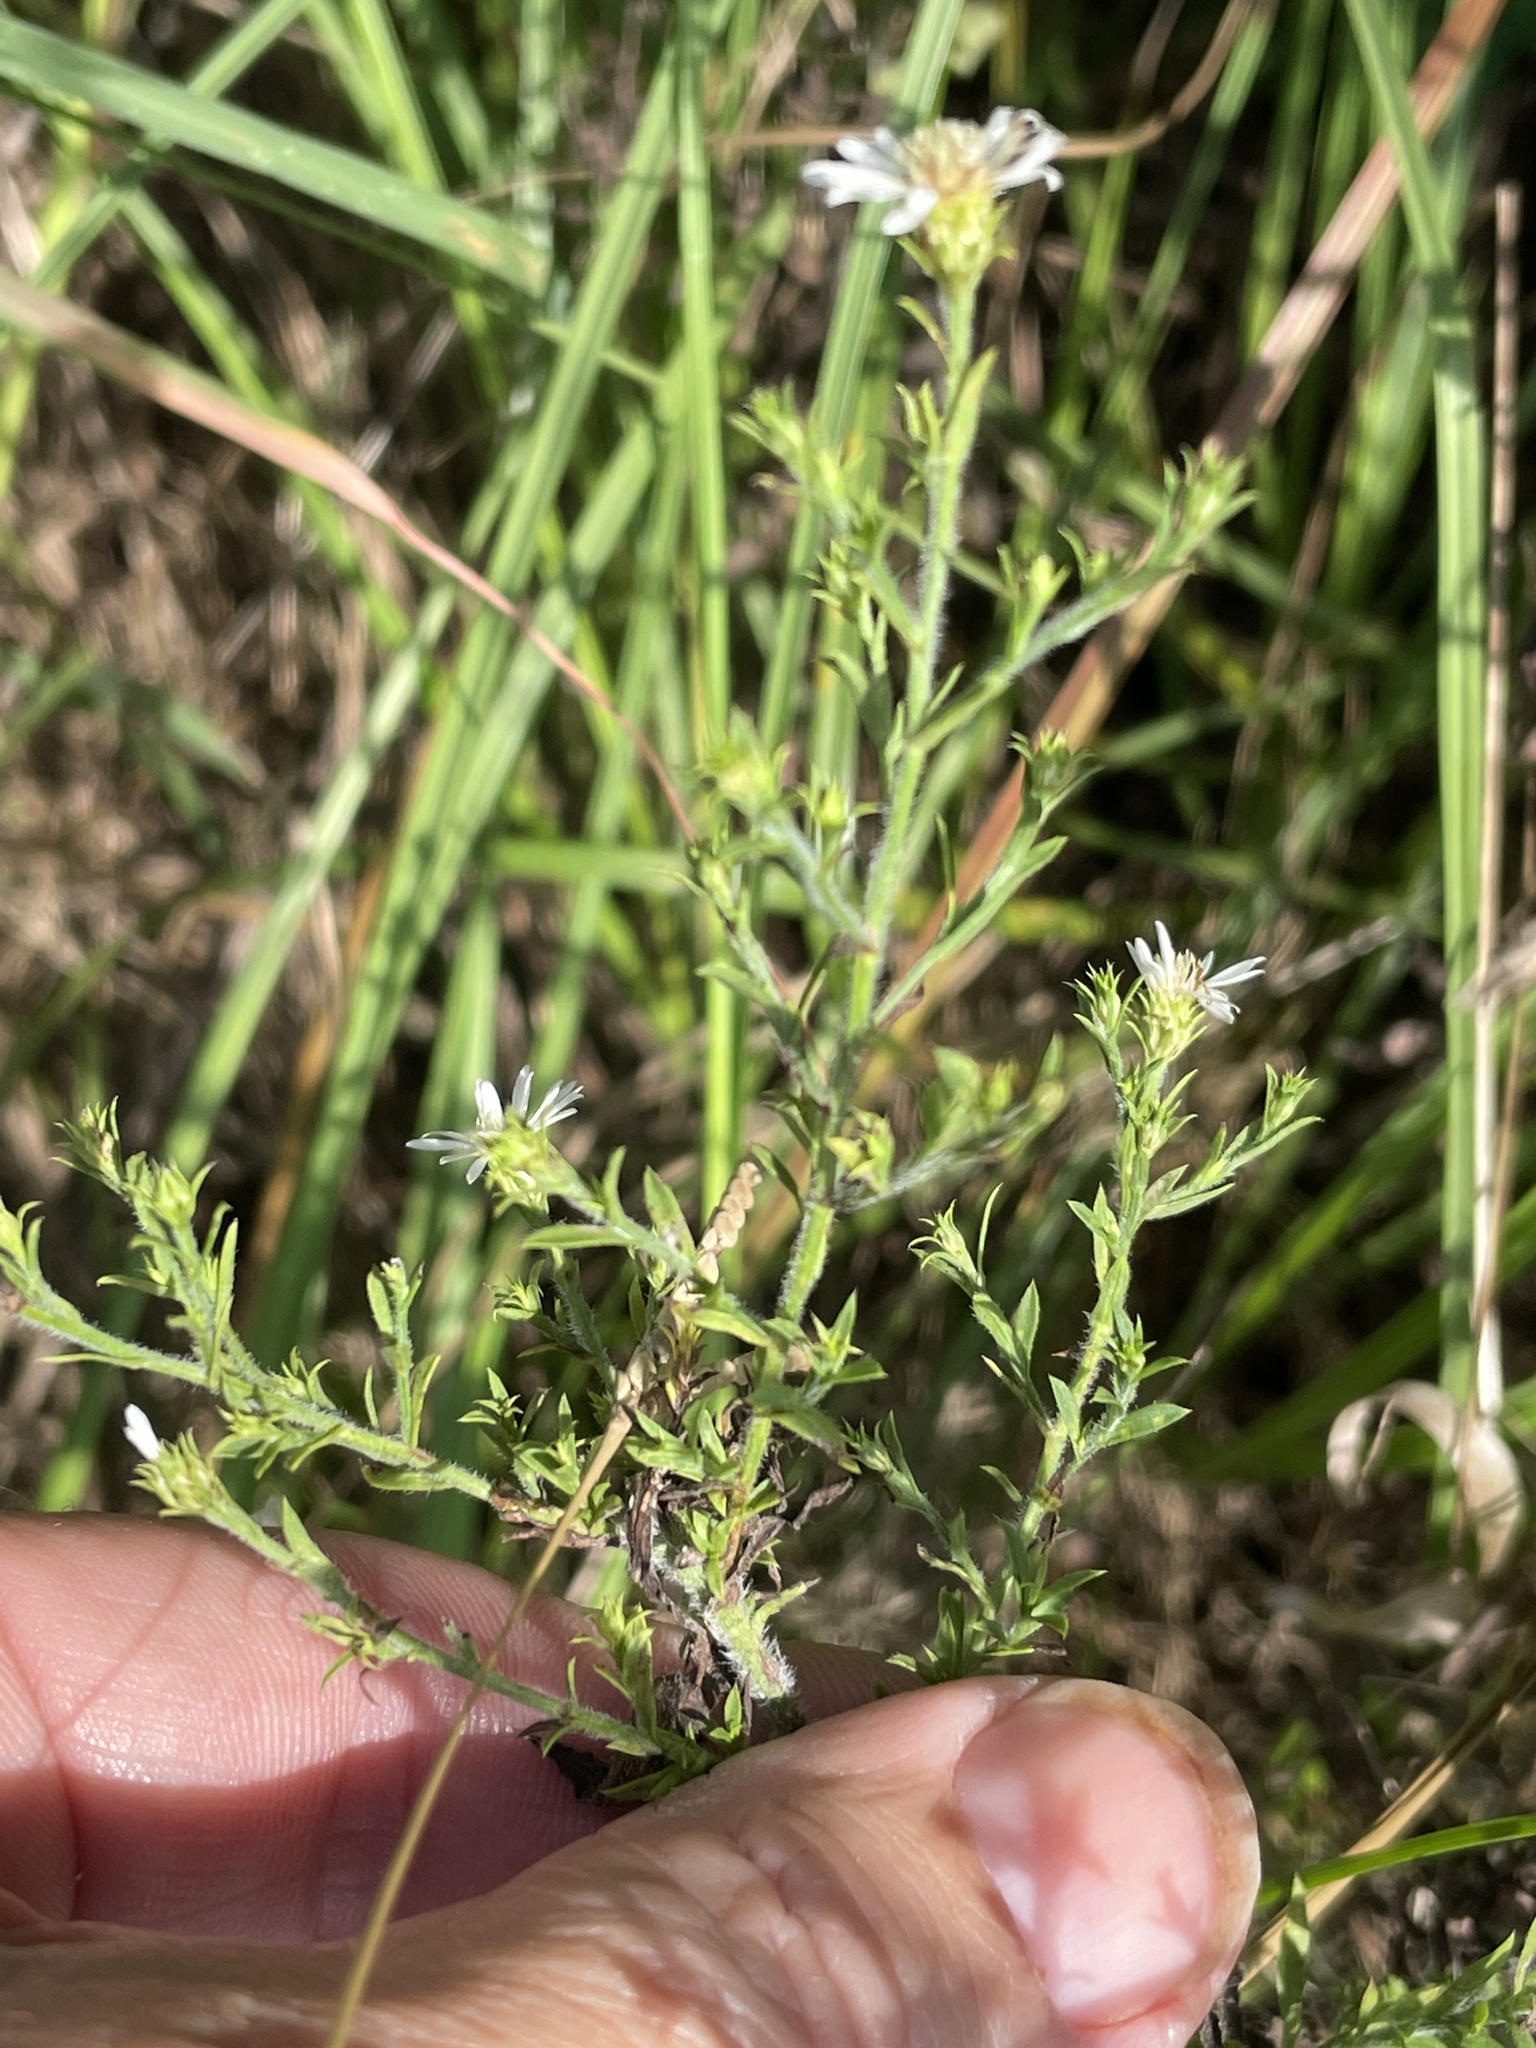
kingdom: Plantae
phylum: Tracheophyta
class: Magnoliopsida
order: Asterales
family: Asteraceae
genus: Symphyotrichum
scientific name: Symphyotrichum pilosum
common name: Awl aster
